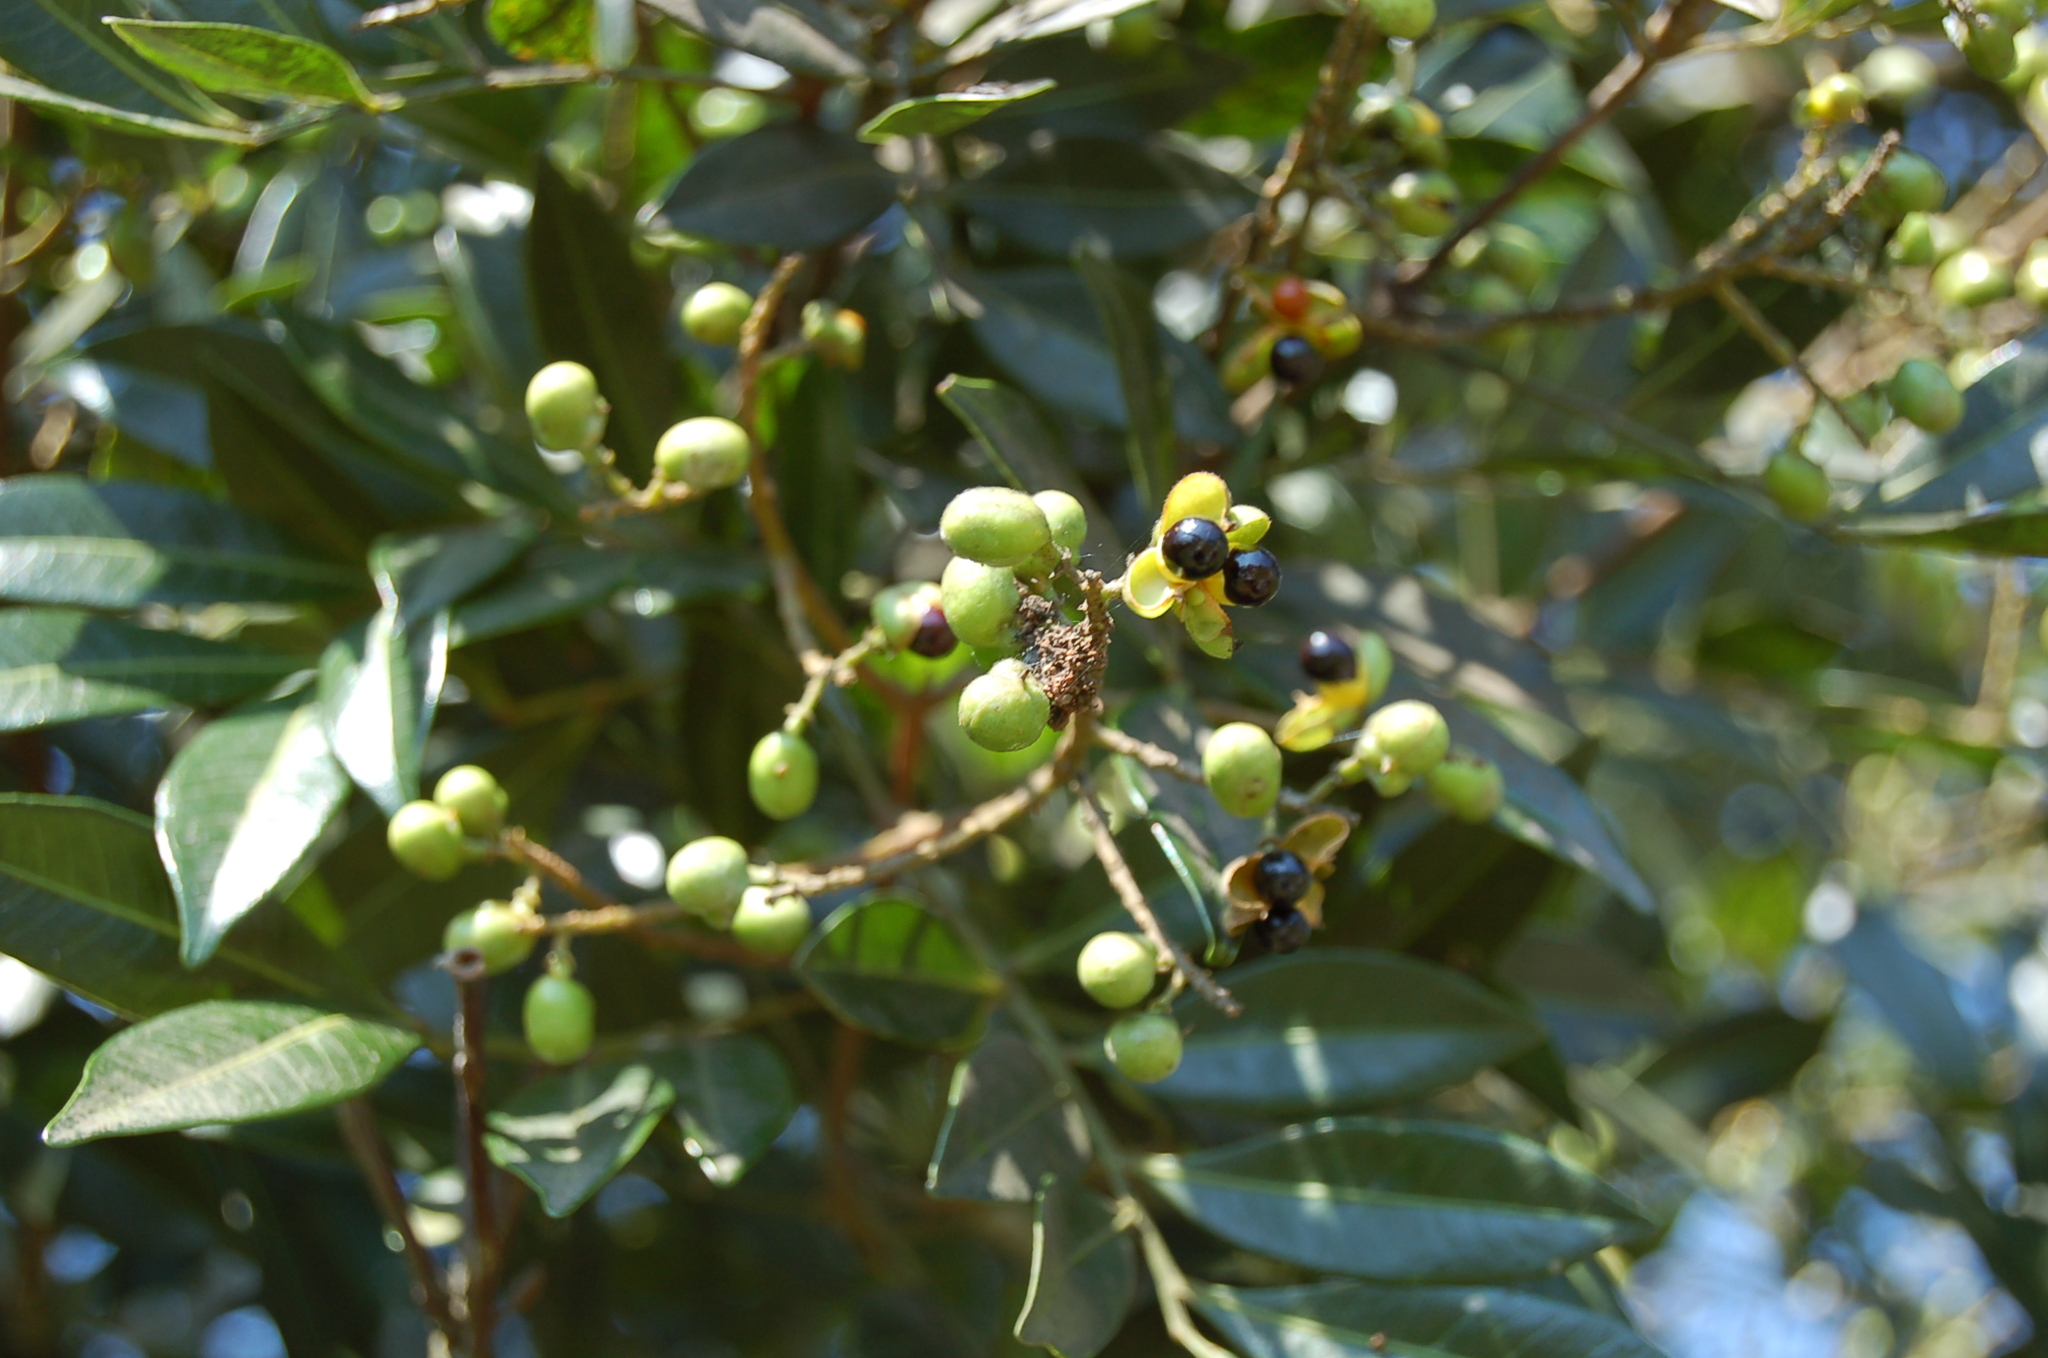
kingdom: Plantae
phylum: Tracheophyta
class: Magnoliopsida
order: Sapindales
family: Sapindaceae
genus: Matayba
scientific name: Matayba oppositifolia
